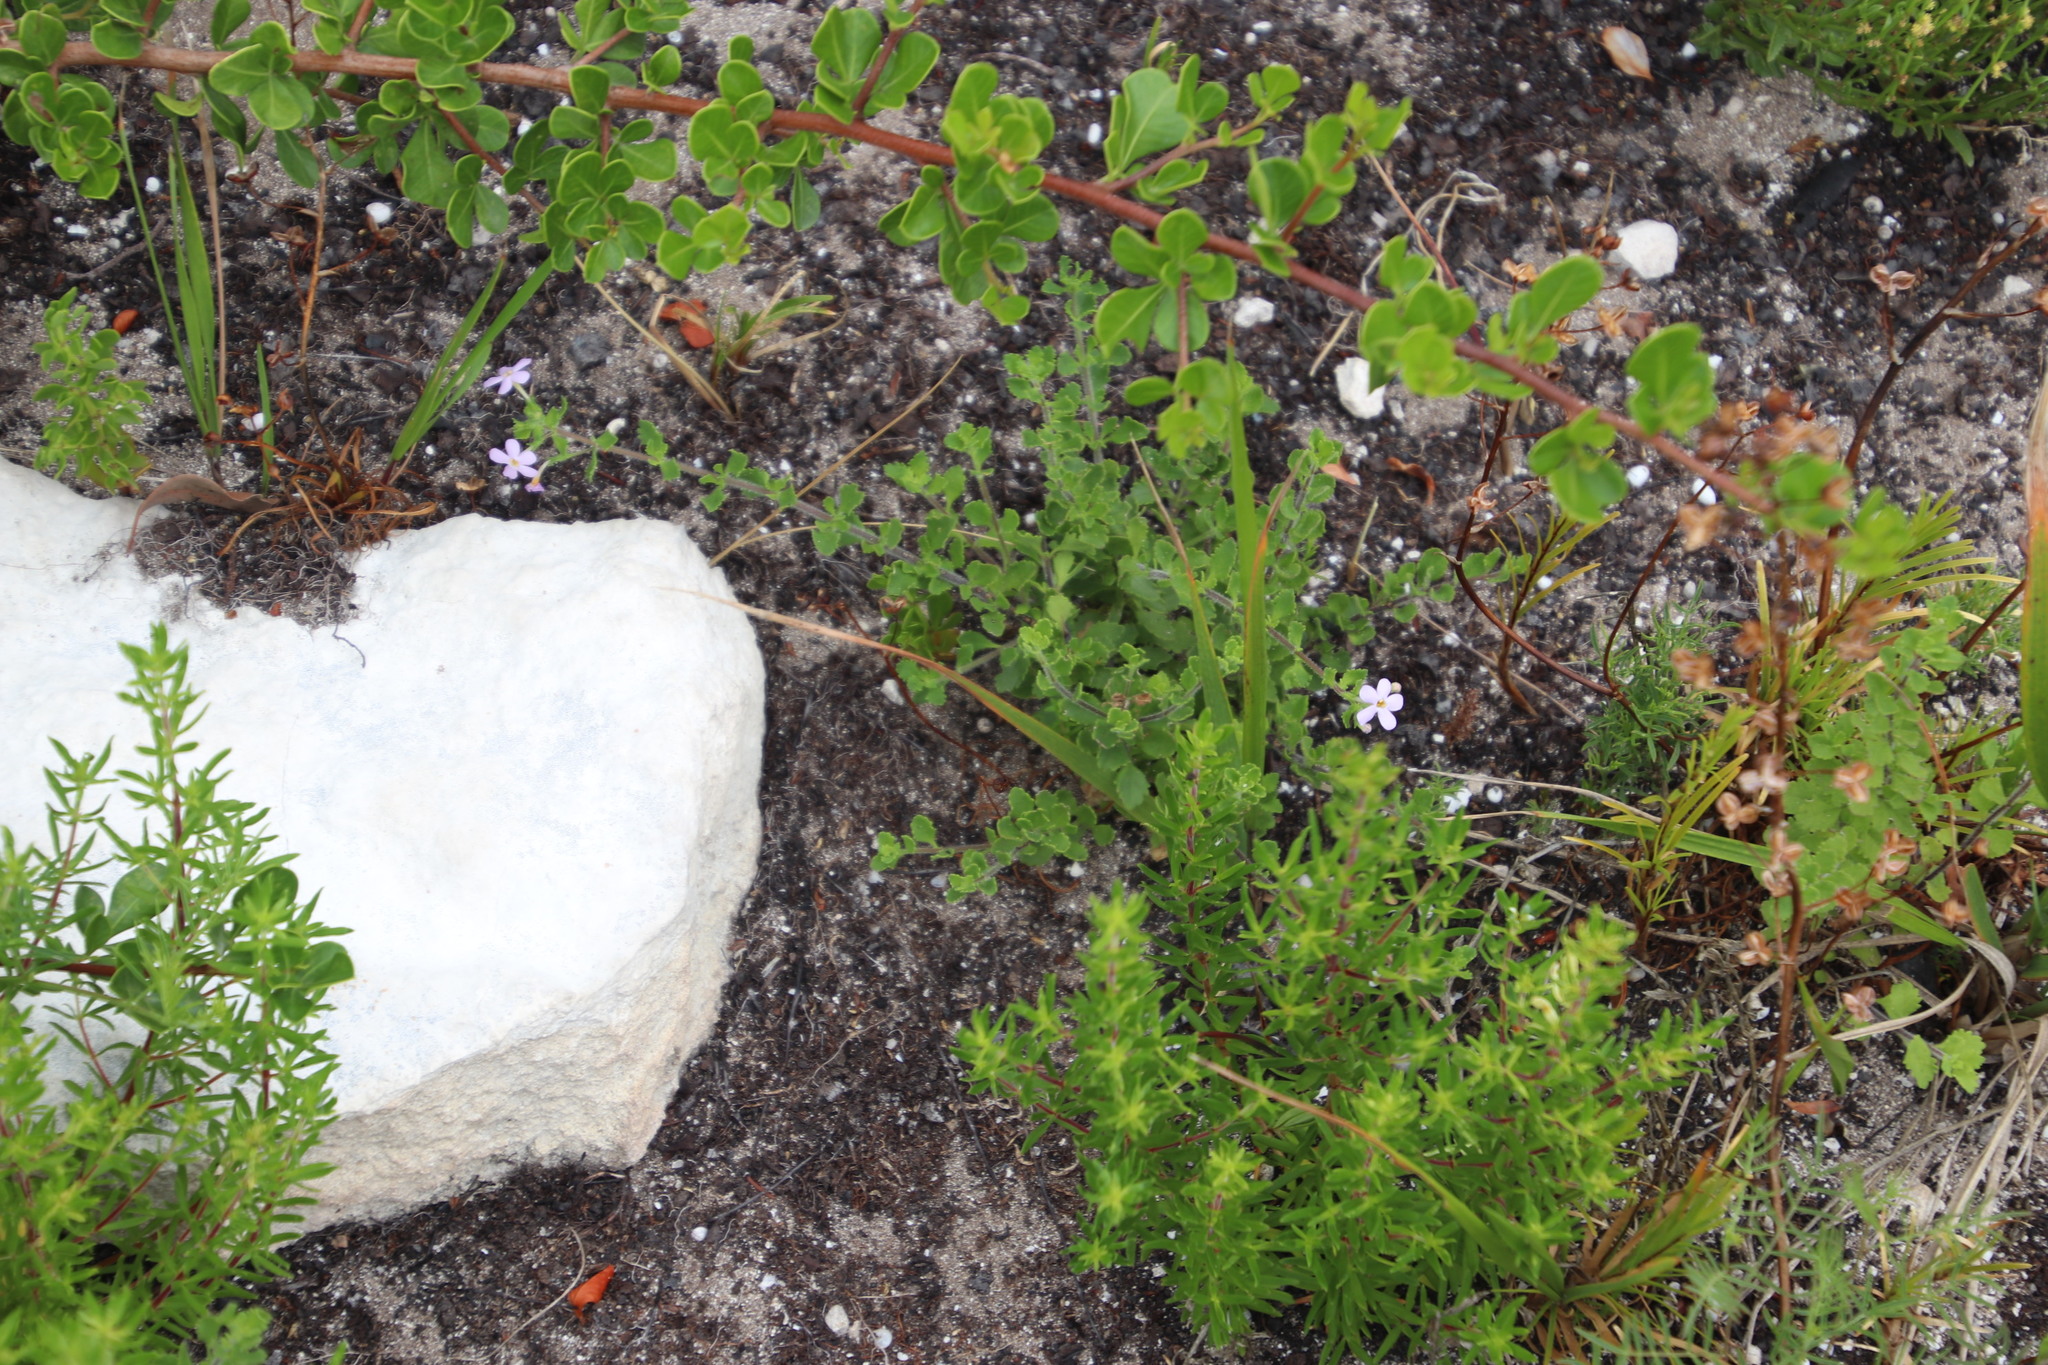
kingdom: Plantae
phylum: Tracheophyta
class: Magnoliopsida
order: Lamiales
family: Scrophulariaceae
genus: Chaenostoma
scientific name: Chaenostoma hispidum
